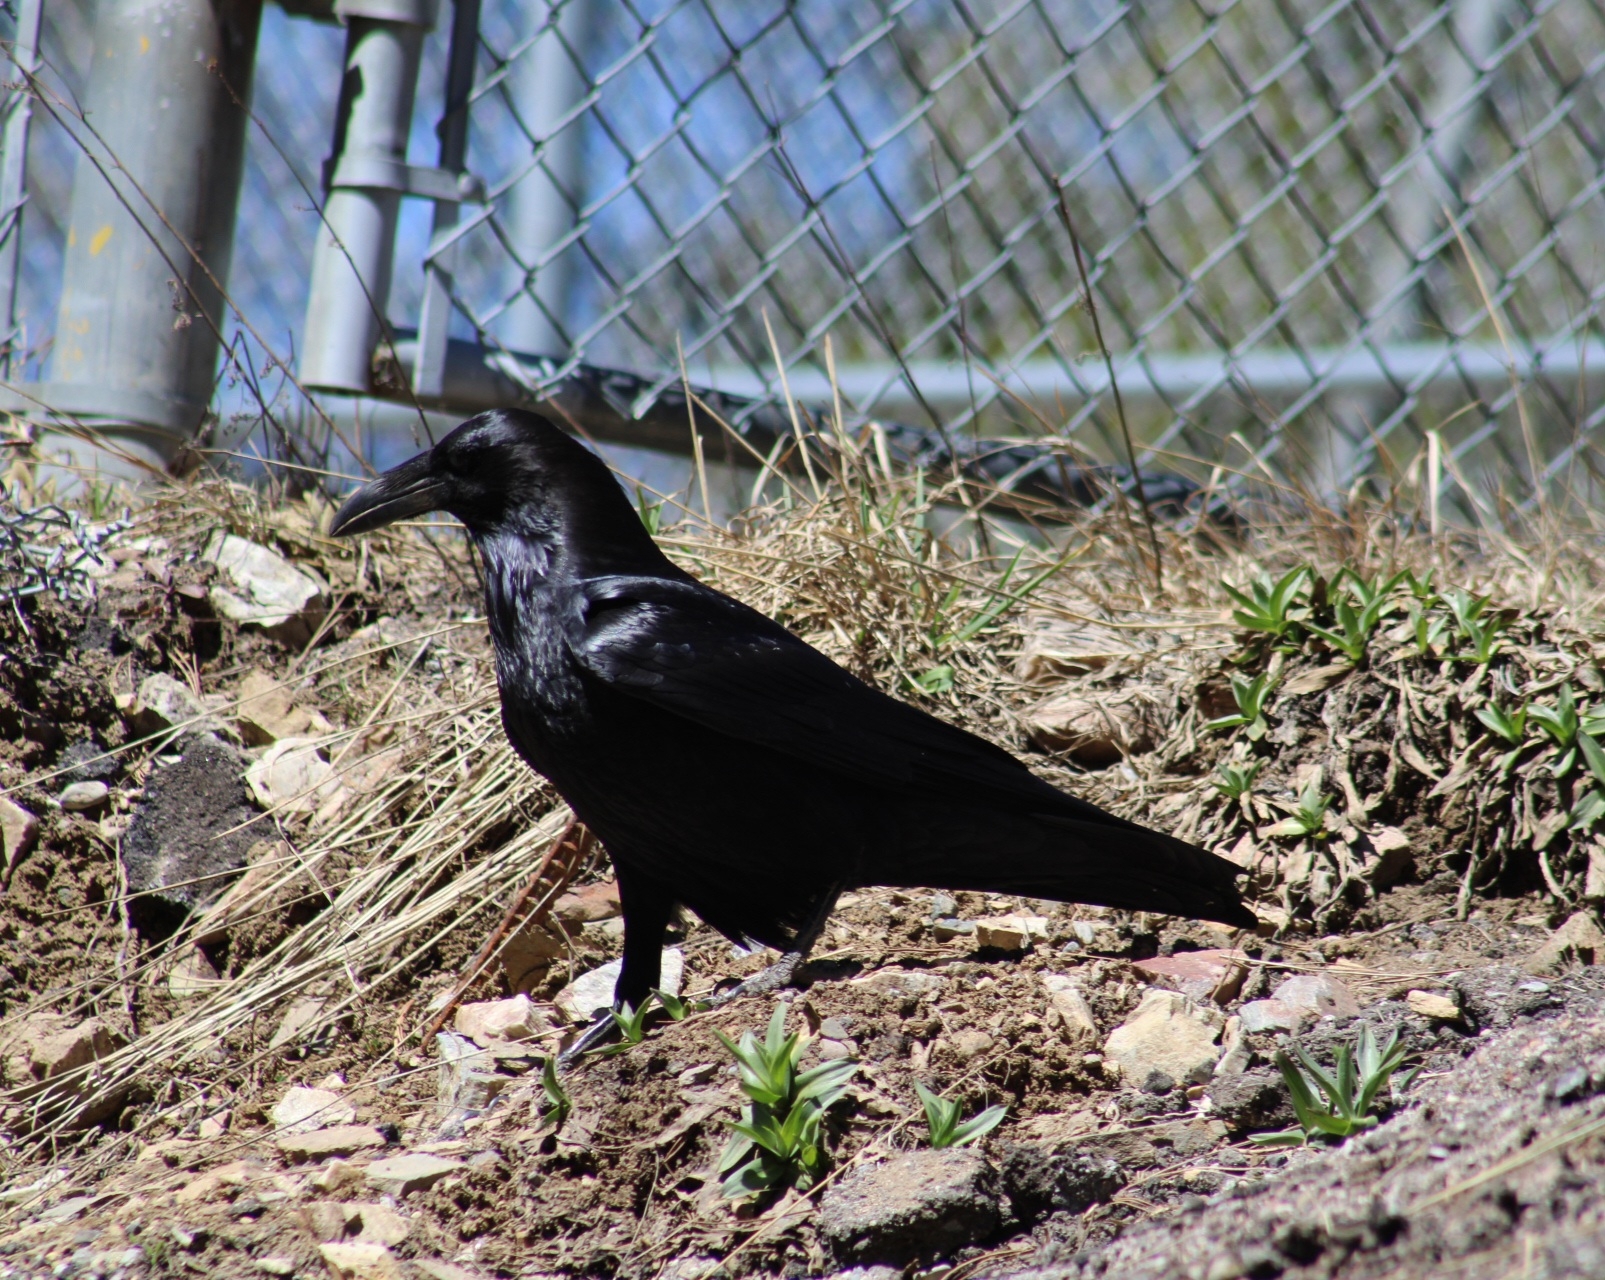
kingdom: Animalia
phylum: Chordata
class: Aves
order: Passeriformes
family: Corvidae
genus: Corvus
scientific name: Corvus corax
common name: Common raven
